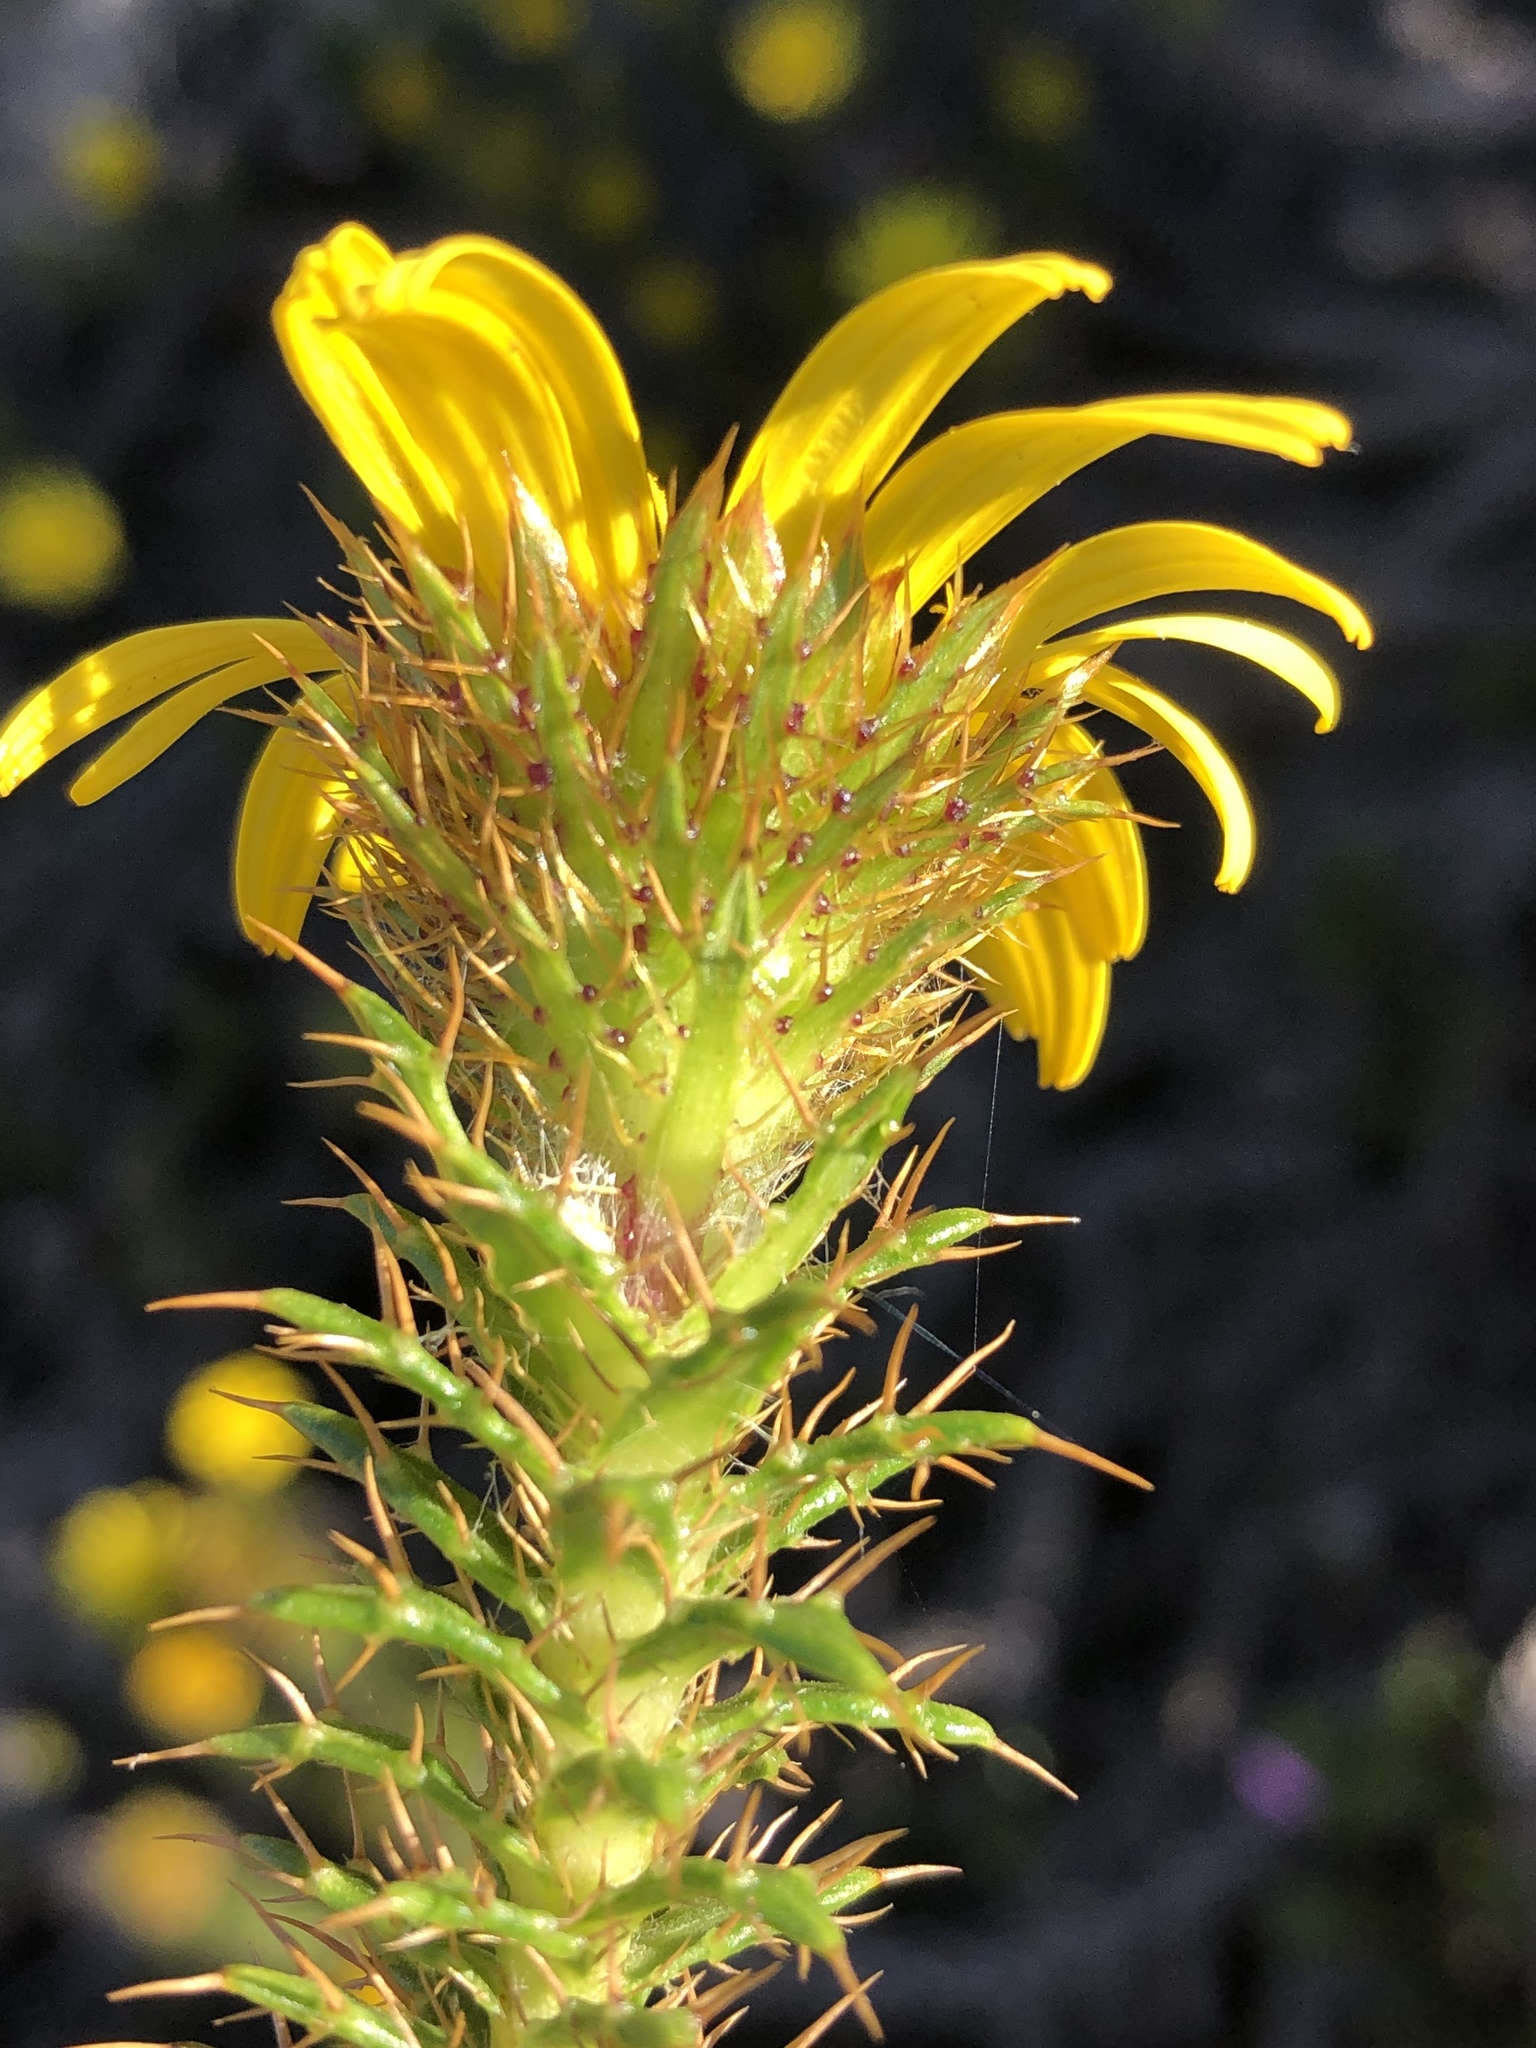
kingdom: Plantae
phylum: Tracheophyta
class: Magnoliopsida
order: Asterales
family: Asteraceae
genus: Cullumia
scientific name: Cullumia carlinoides
